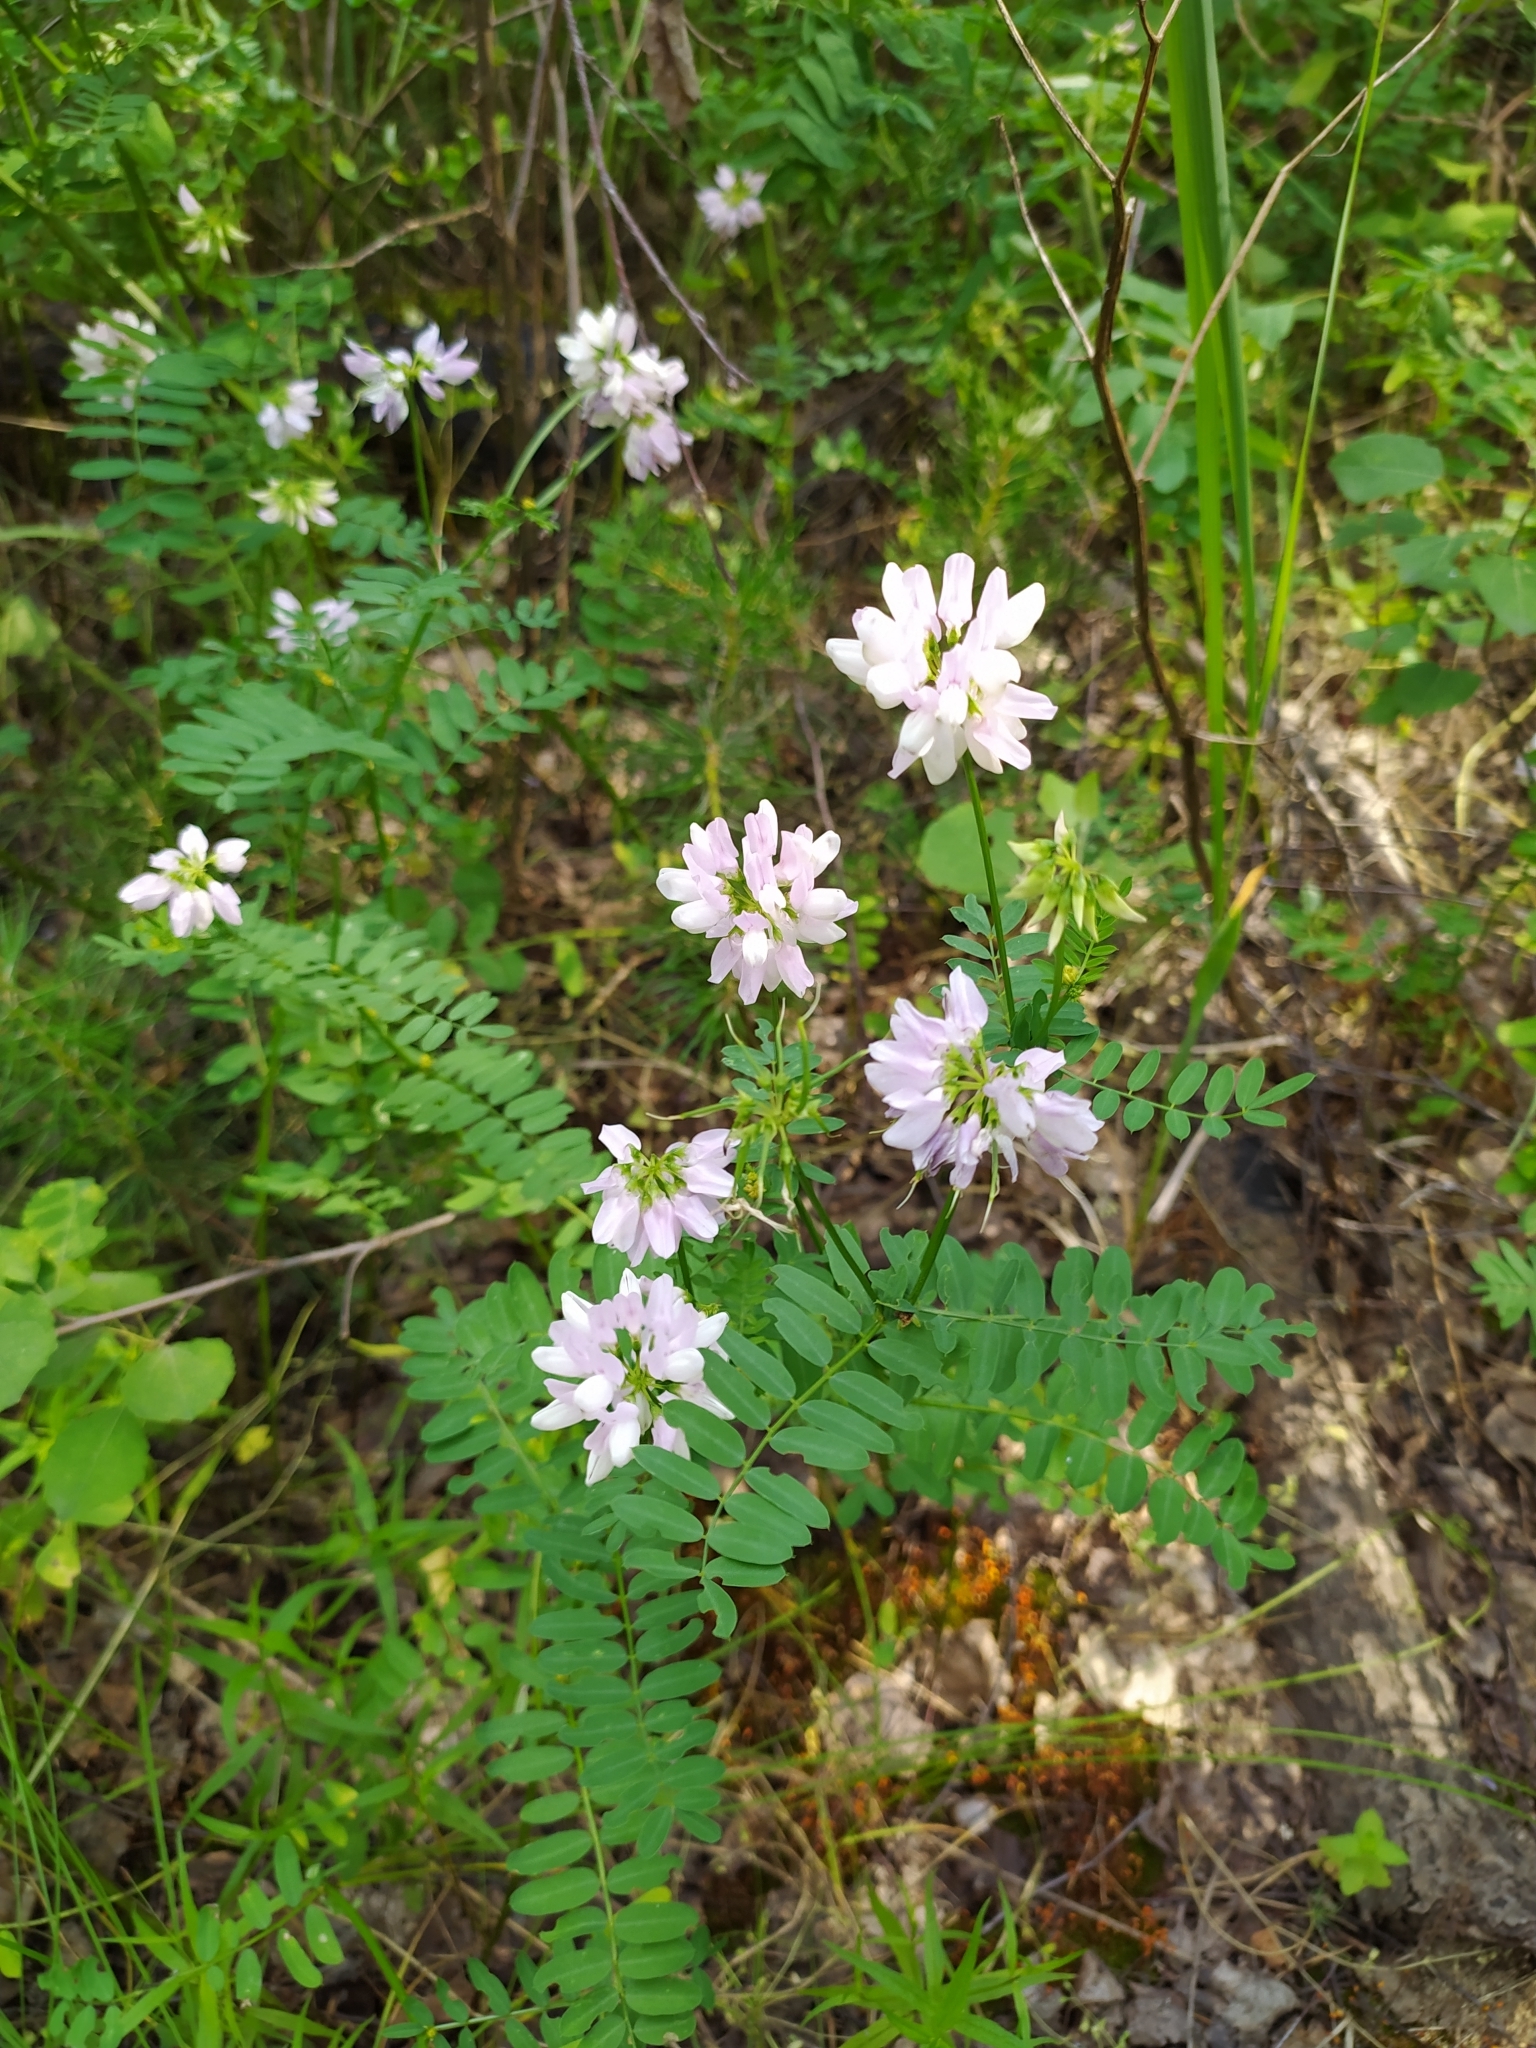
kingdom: Plantae
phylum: Tracheophyta
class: Magnoliopsida
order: Fabales
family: Fabaceae
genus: Coronilla
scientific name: Coronilla varia
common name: Crownvetch
